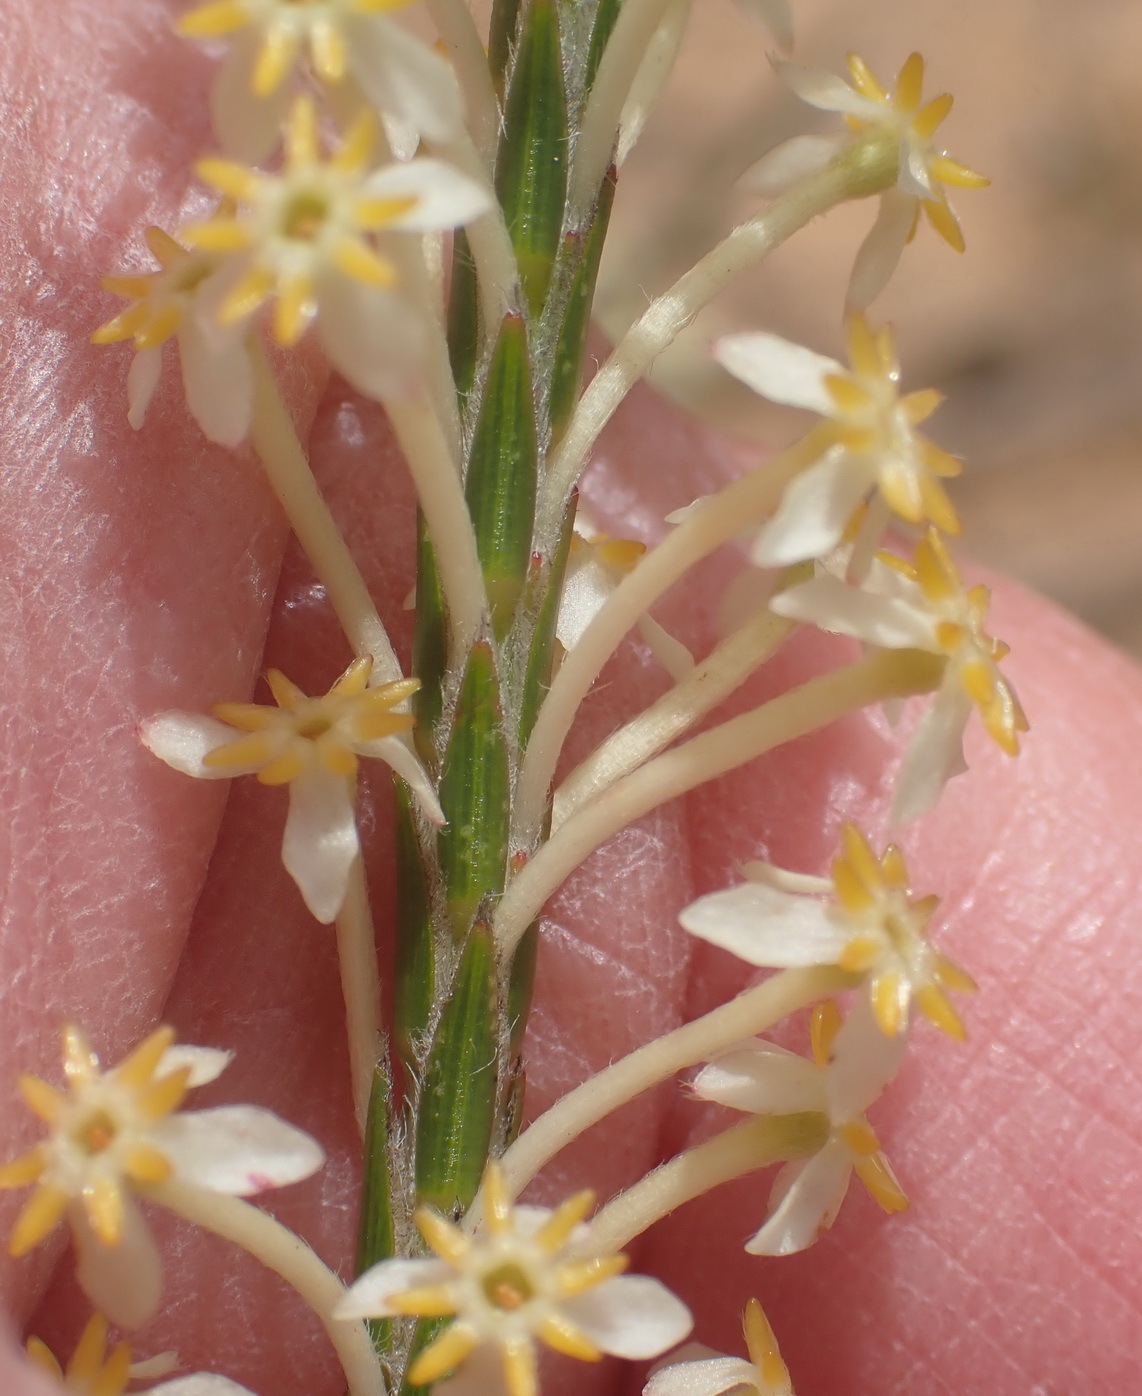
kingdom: Plantae
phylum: Tracheophyta
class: Magnoliopsida
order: Malvales
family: Thymelaeaceae
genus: Struthiola
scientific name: Struthiola ciliata
